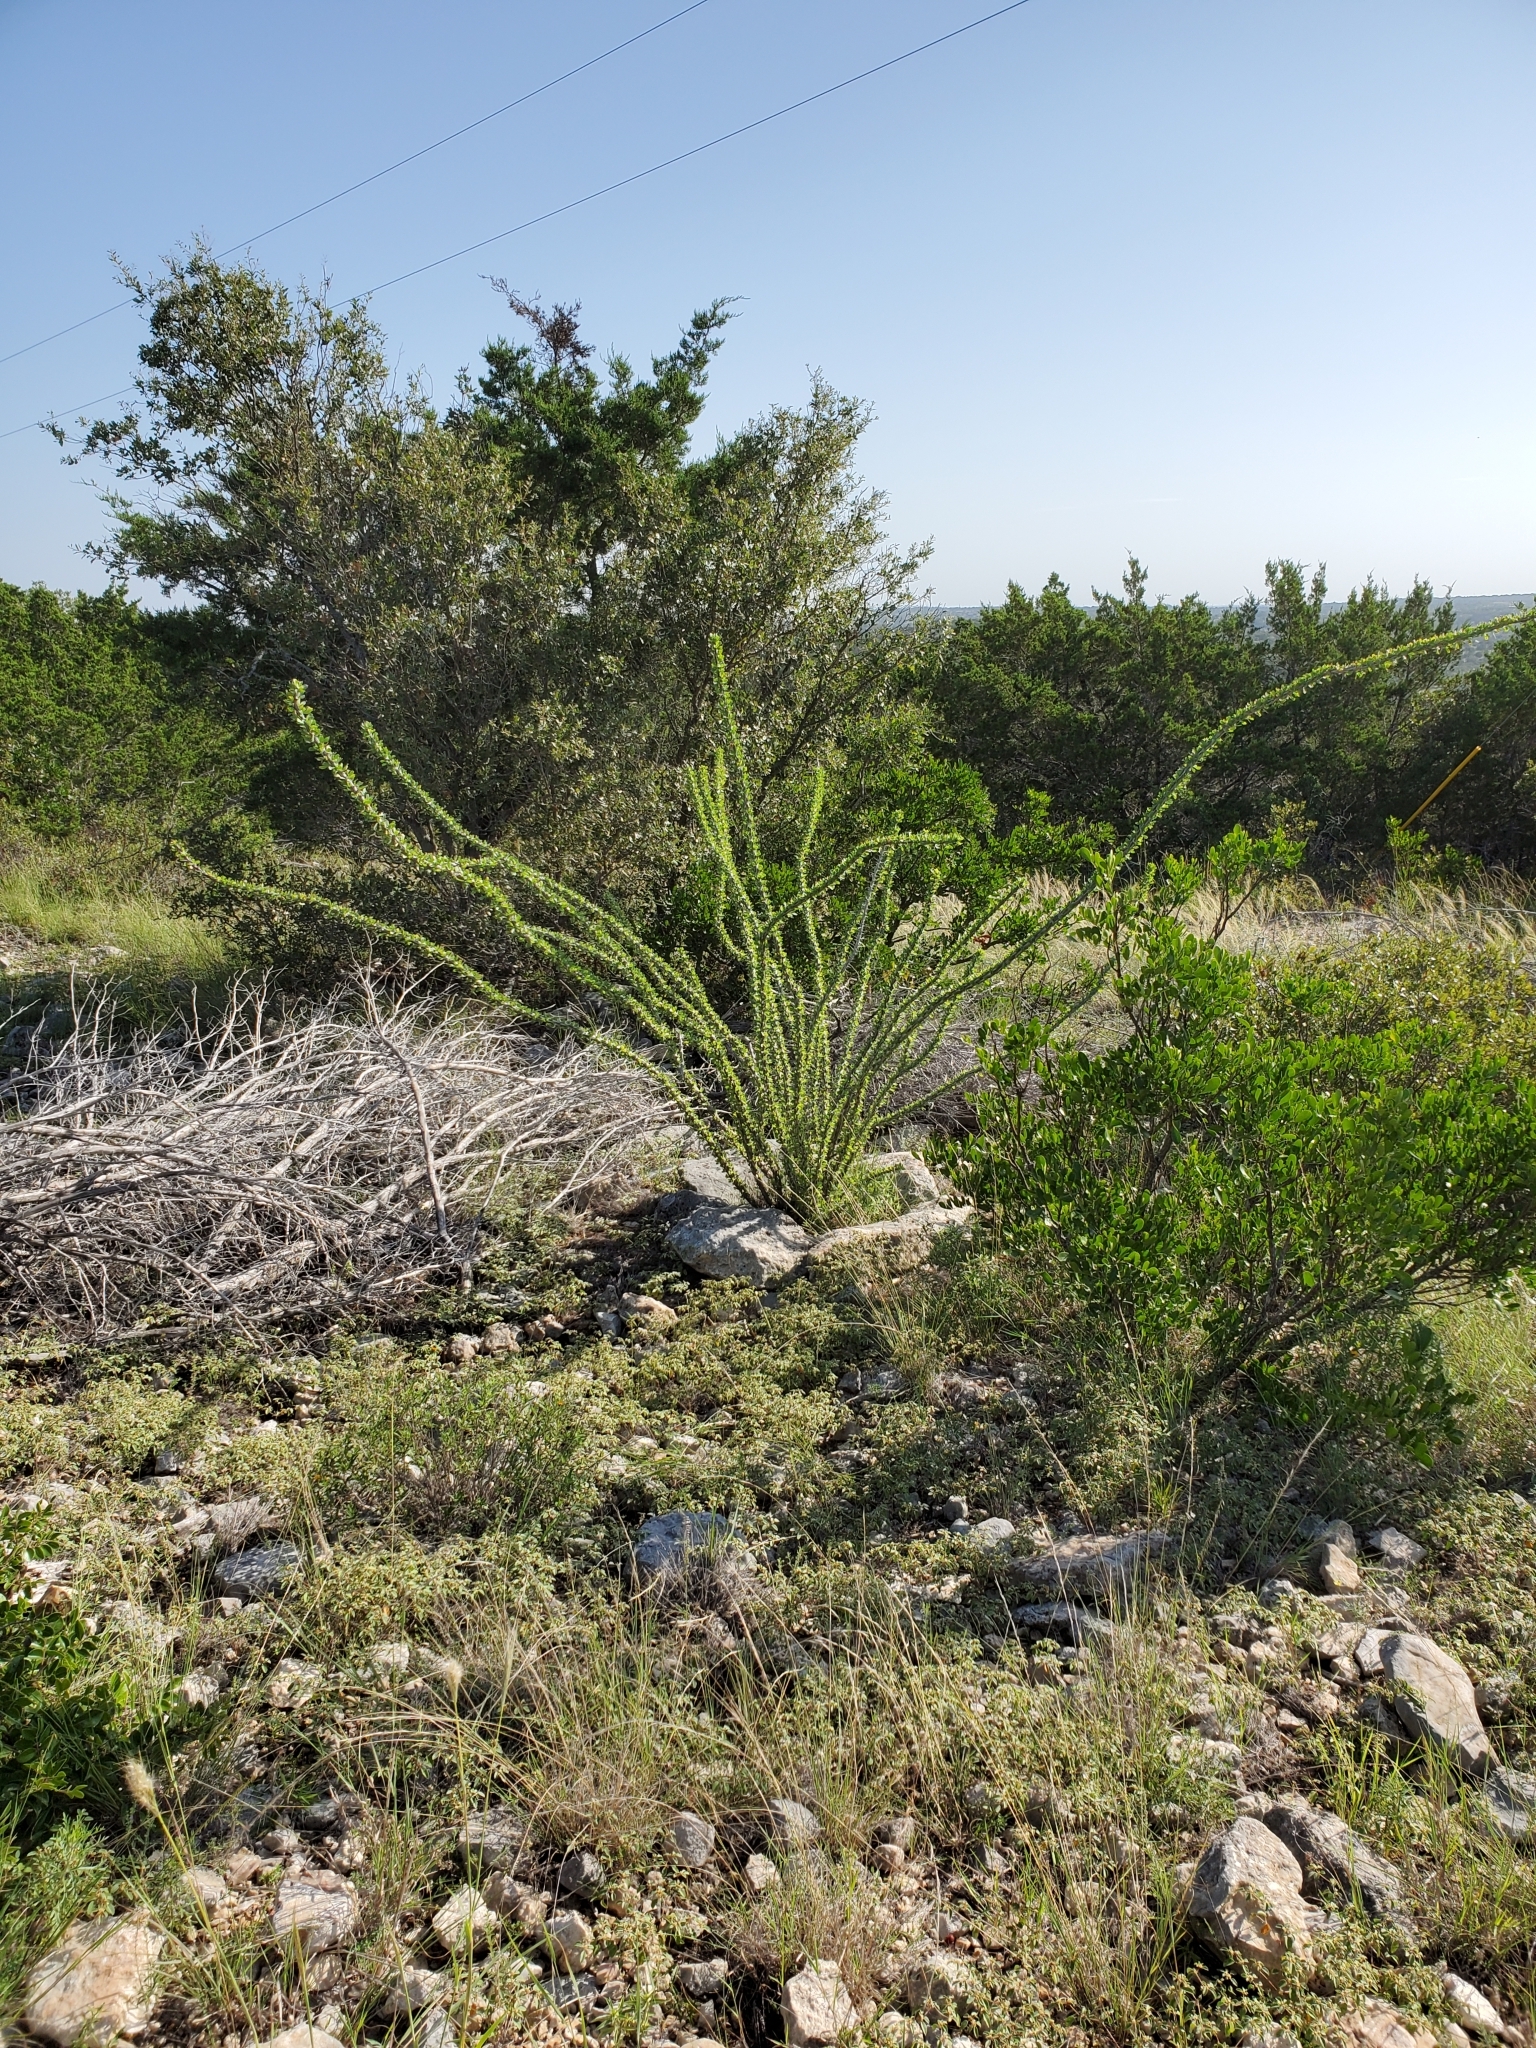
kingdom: Plantae
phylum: Tracheophyta
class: Magnoliopsida
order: Ericales
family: Fouquieriaceae
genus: Fouquieria
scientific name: Fouquieria splendens
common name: Vine-cactus
